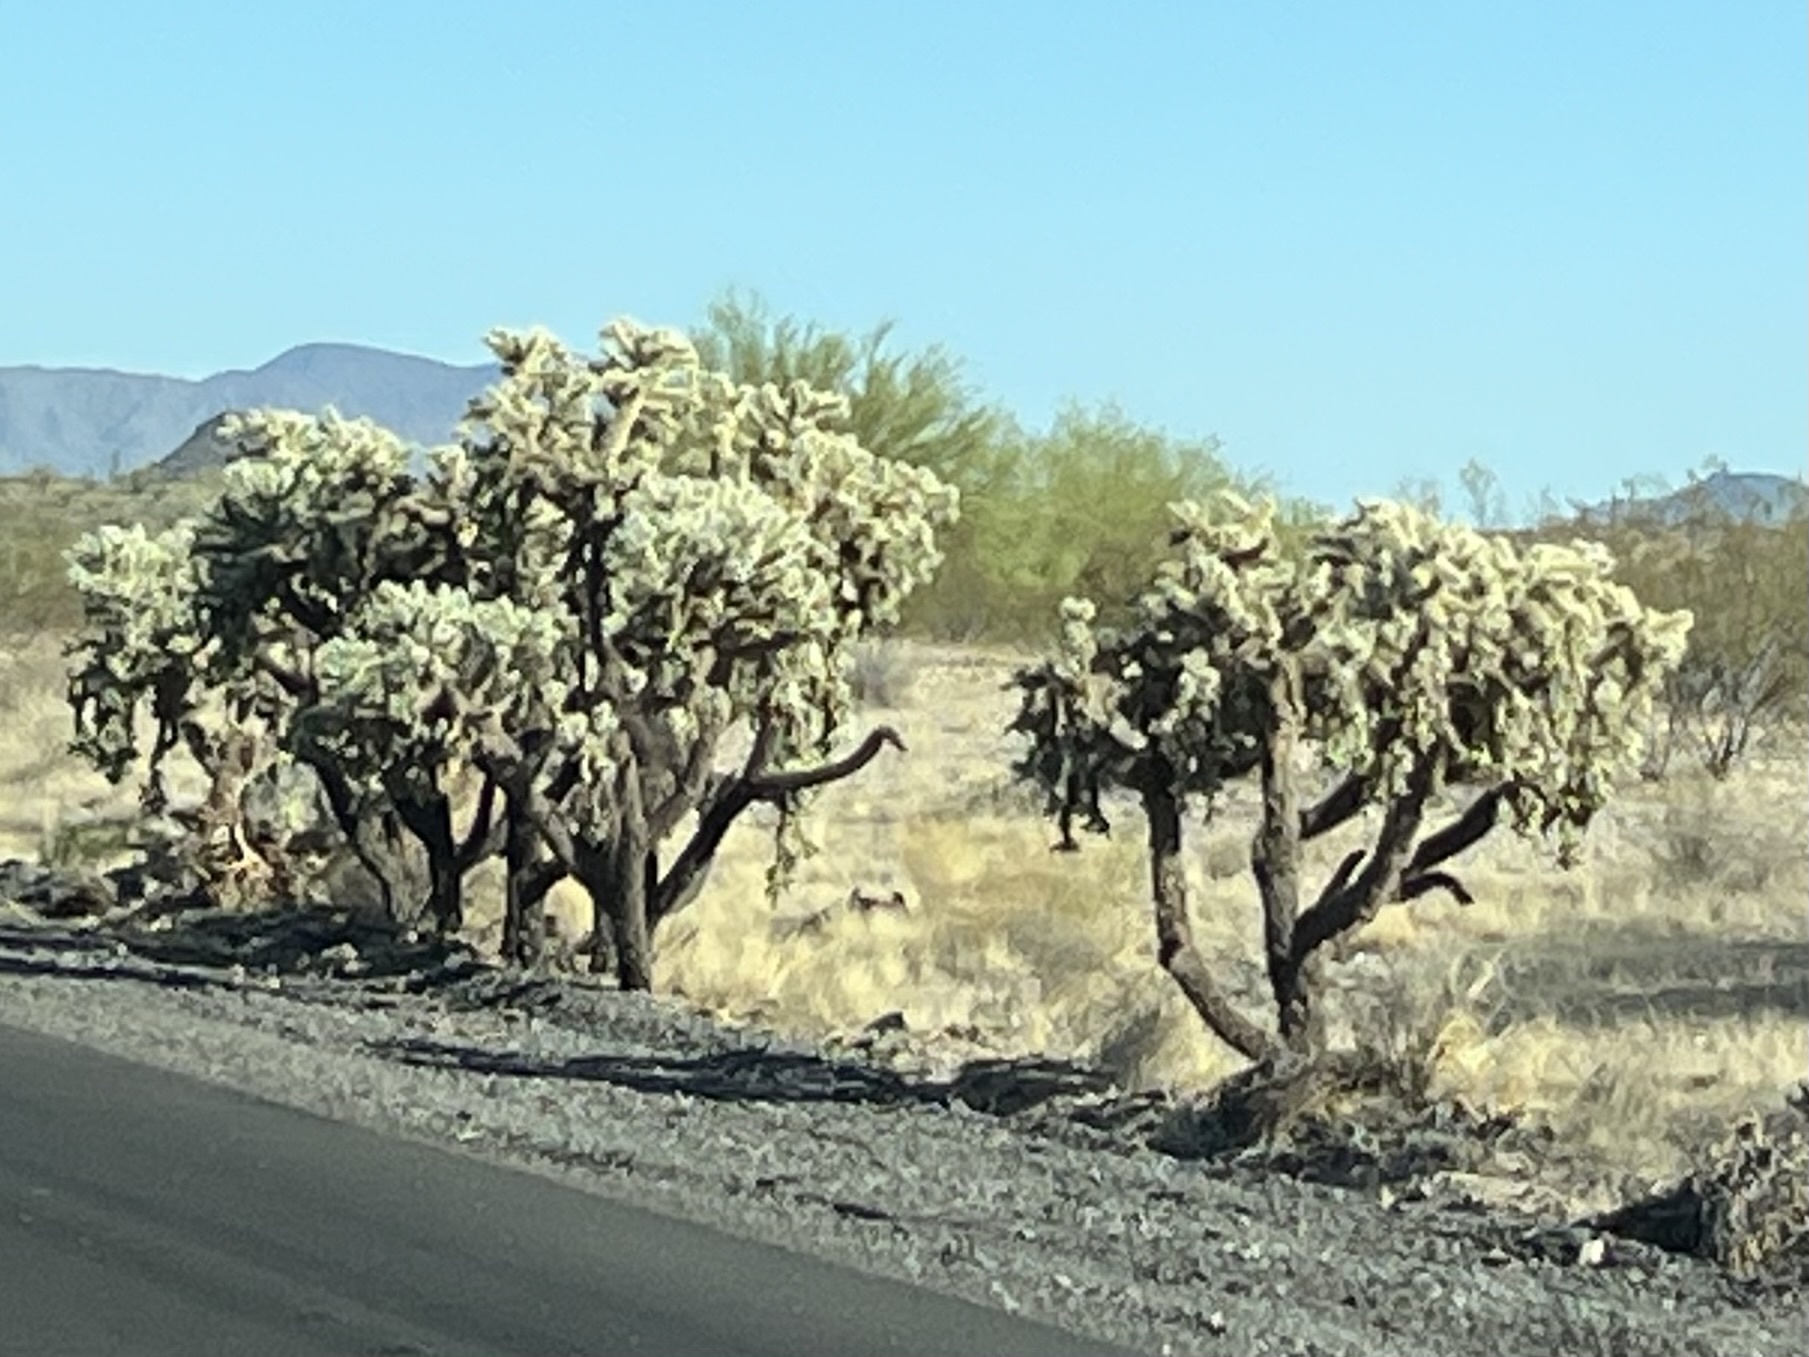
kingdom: Plantae
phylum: Tracheophyta
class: Magnoliopsida
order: Caryophyllales
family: Cactaceae
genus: Cylindropuntia
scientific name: Cylindropuntia fulgida
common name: Jumping cholla
